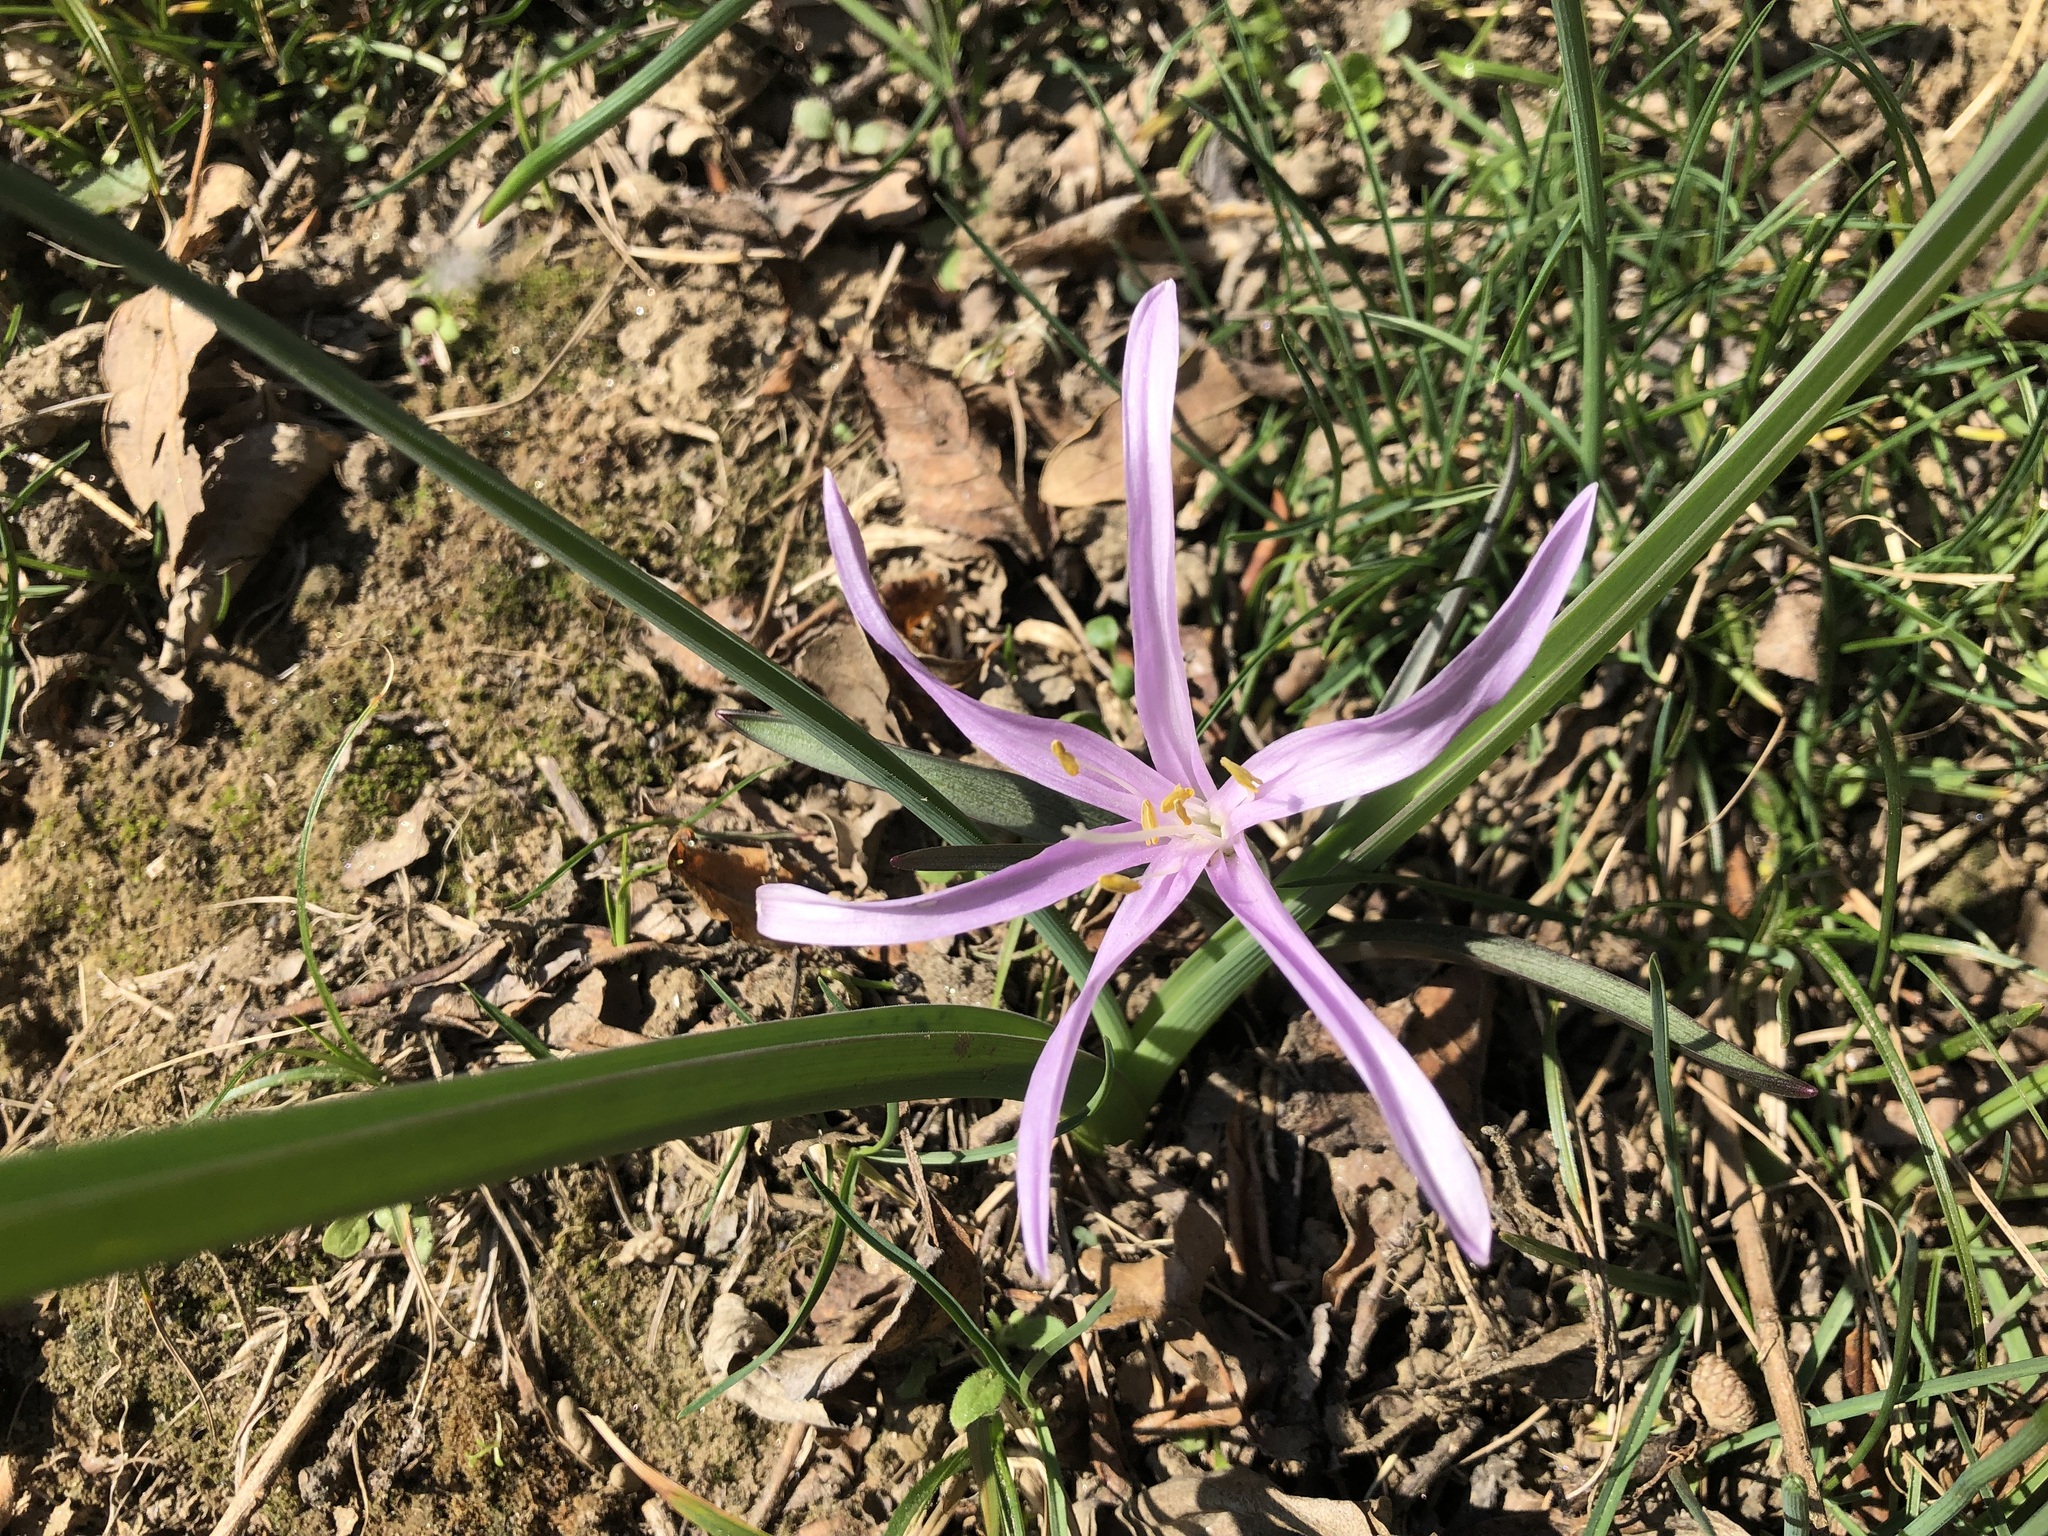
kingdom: Plantae
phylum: Tracheophyta
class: Liliopsida
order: Liliales
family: Colchicaceae
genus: Colchicum
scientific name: Colchicum bulbocodium
